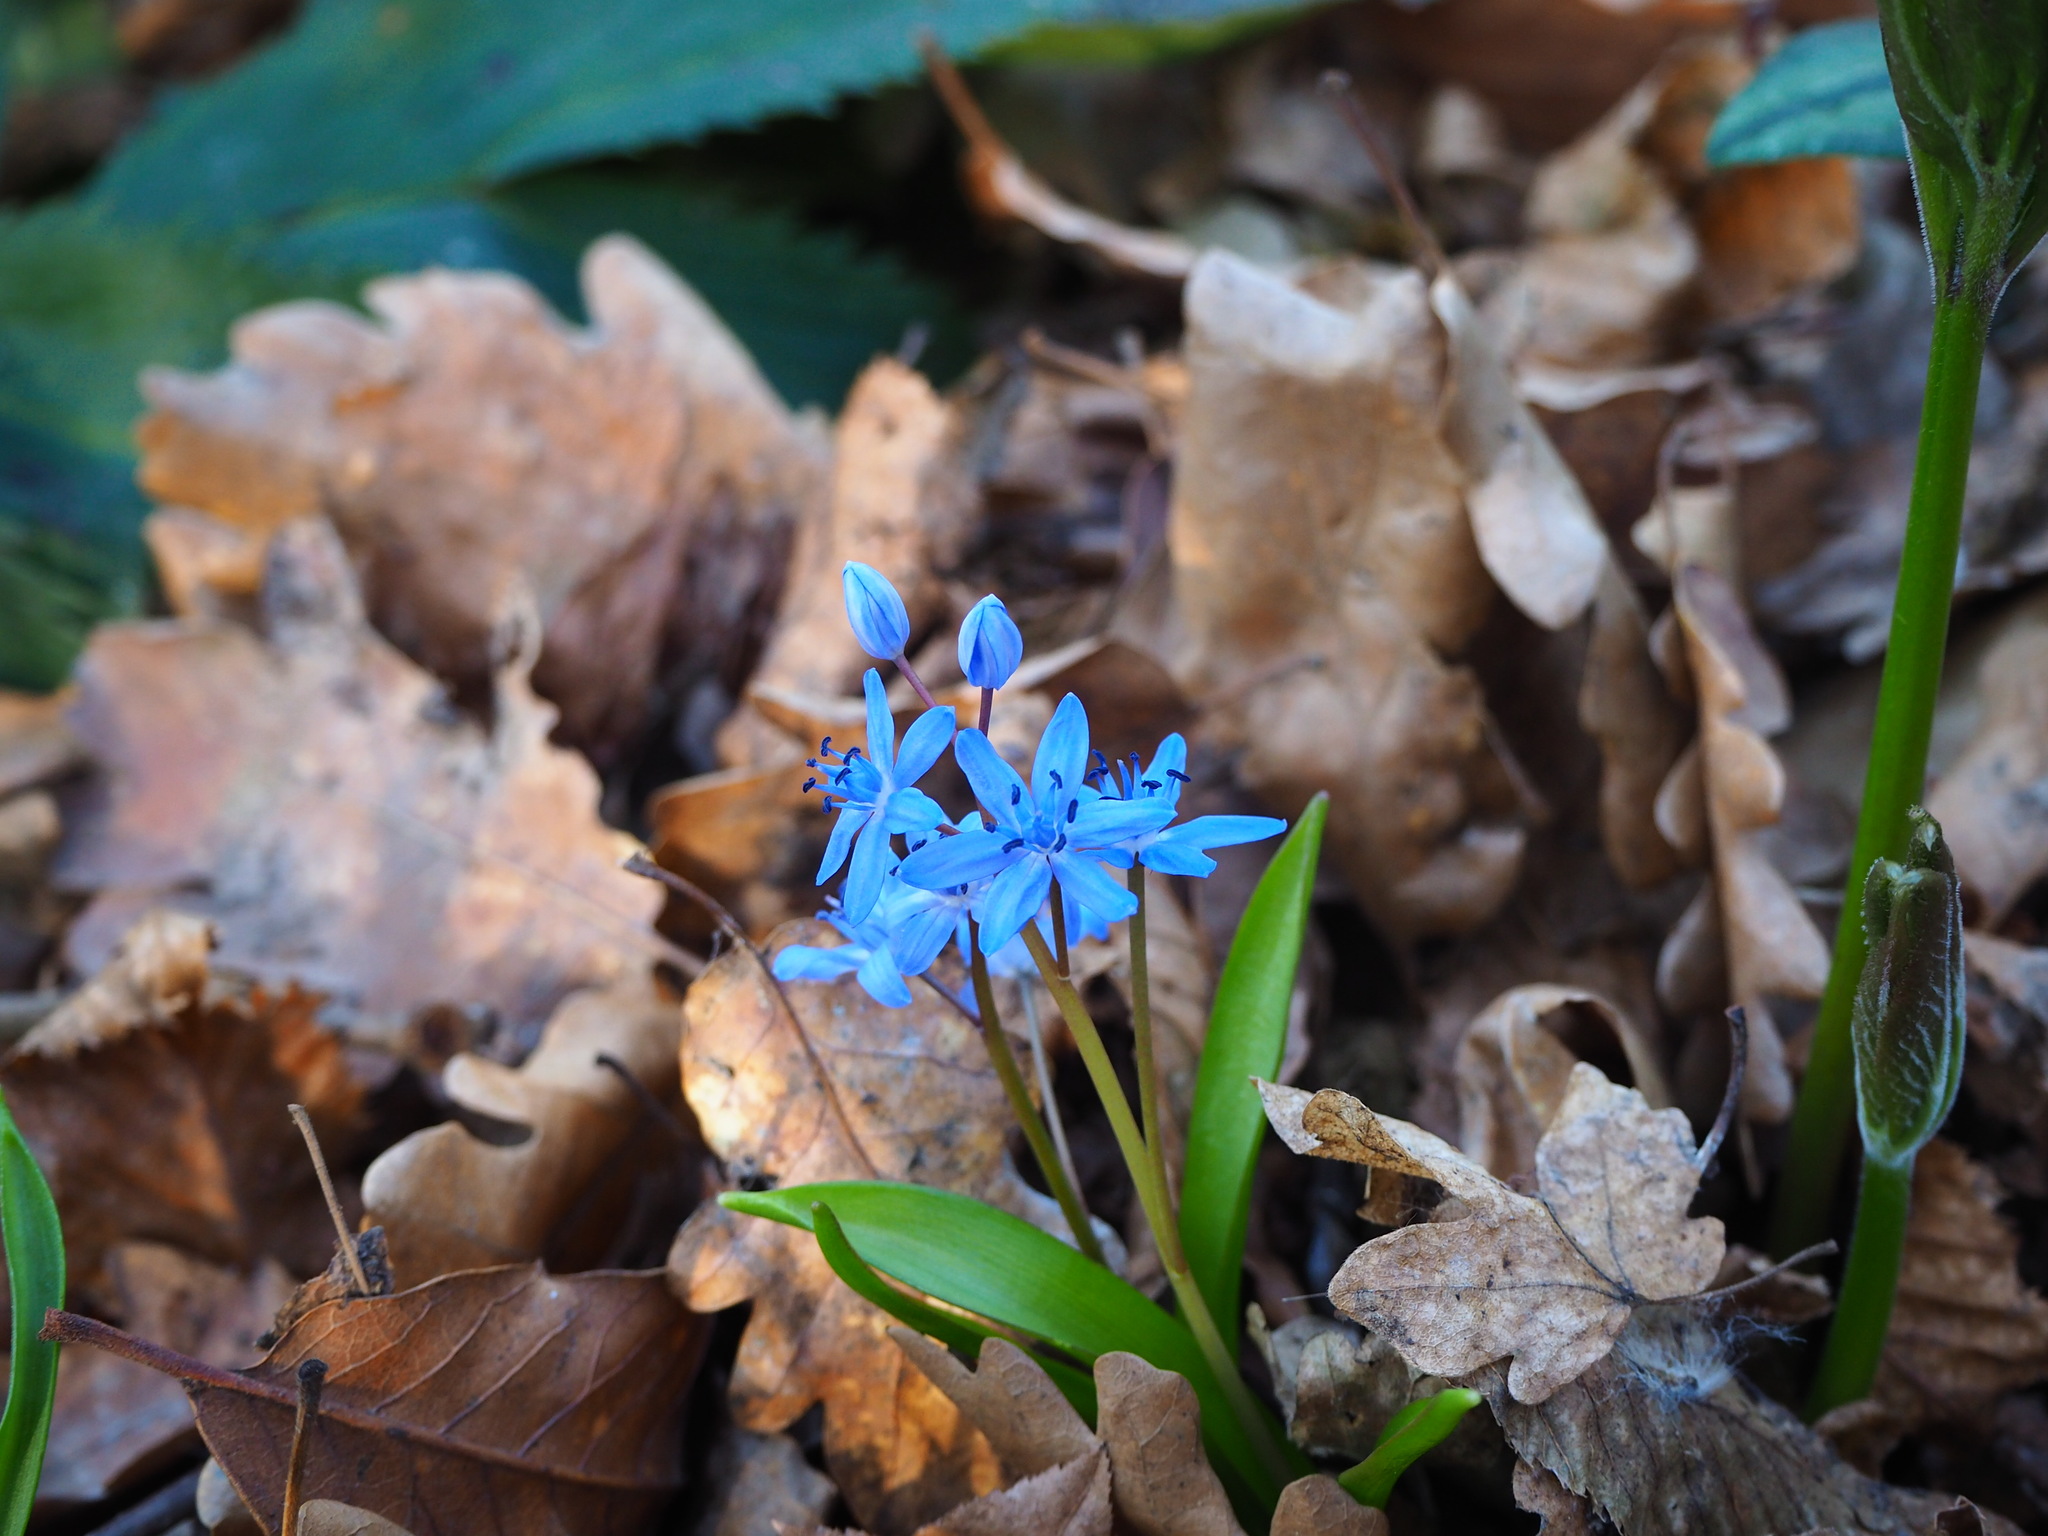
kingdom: Plantae
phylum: Tracheophyta
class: Liliopsida
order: Asparagales
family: Asparagaceae
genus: Scilla
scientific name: Scilla bifolia
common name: Alpine squill
